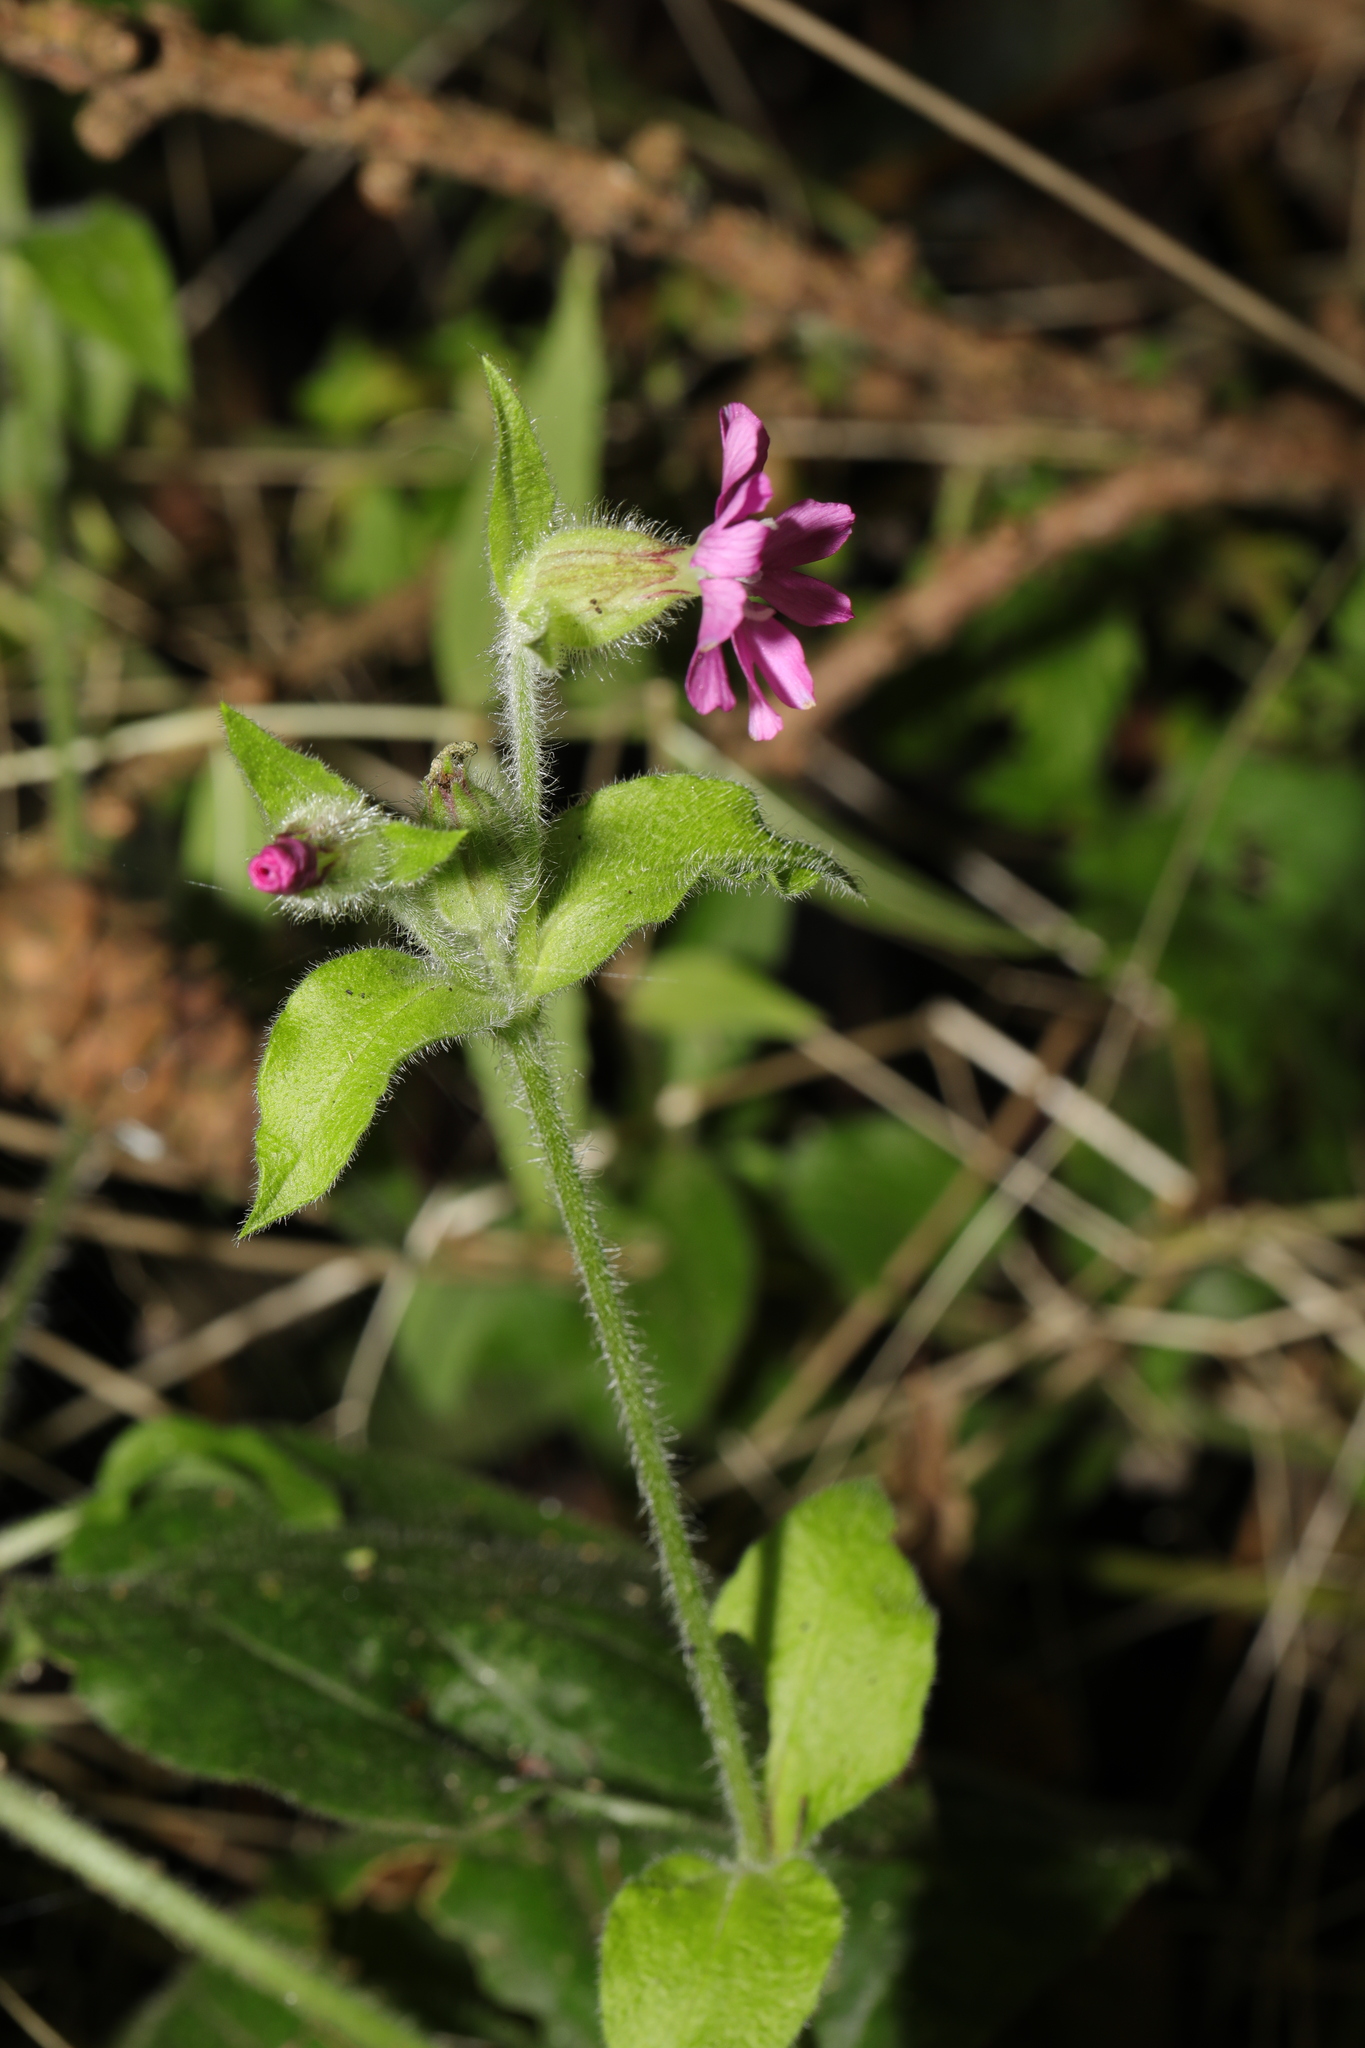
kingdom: Plantae
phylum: Tracheophyta
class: Magnoliopsida
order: Caryophyllales
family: Caryophyllaceae
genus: Silene
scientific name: Silene dioica
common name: Red campion
